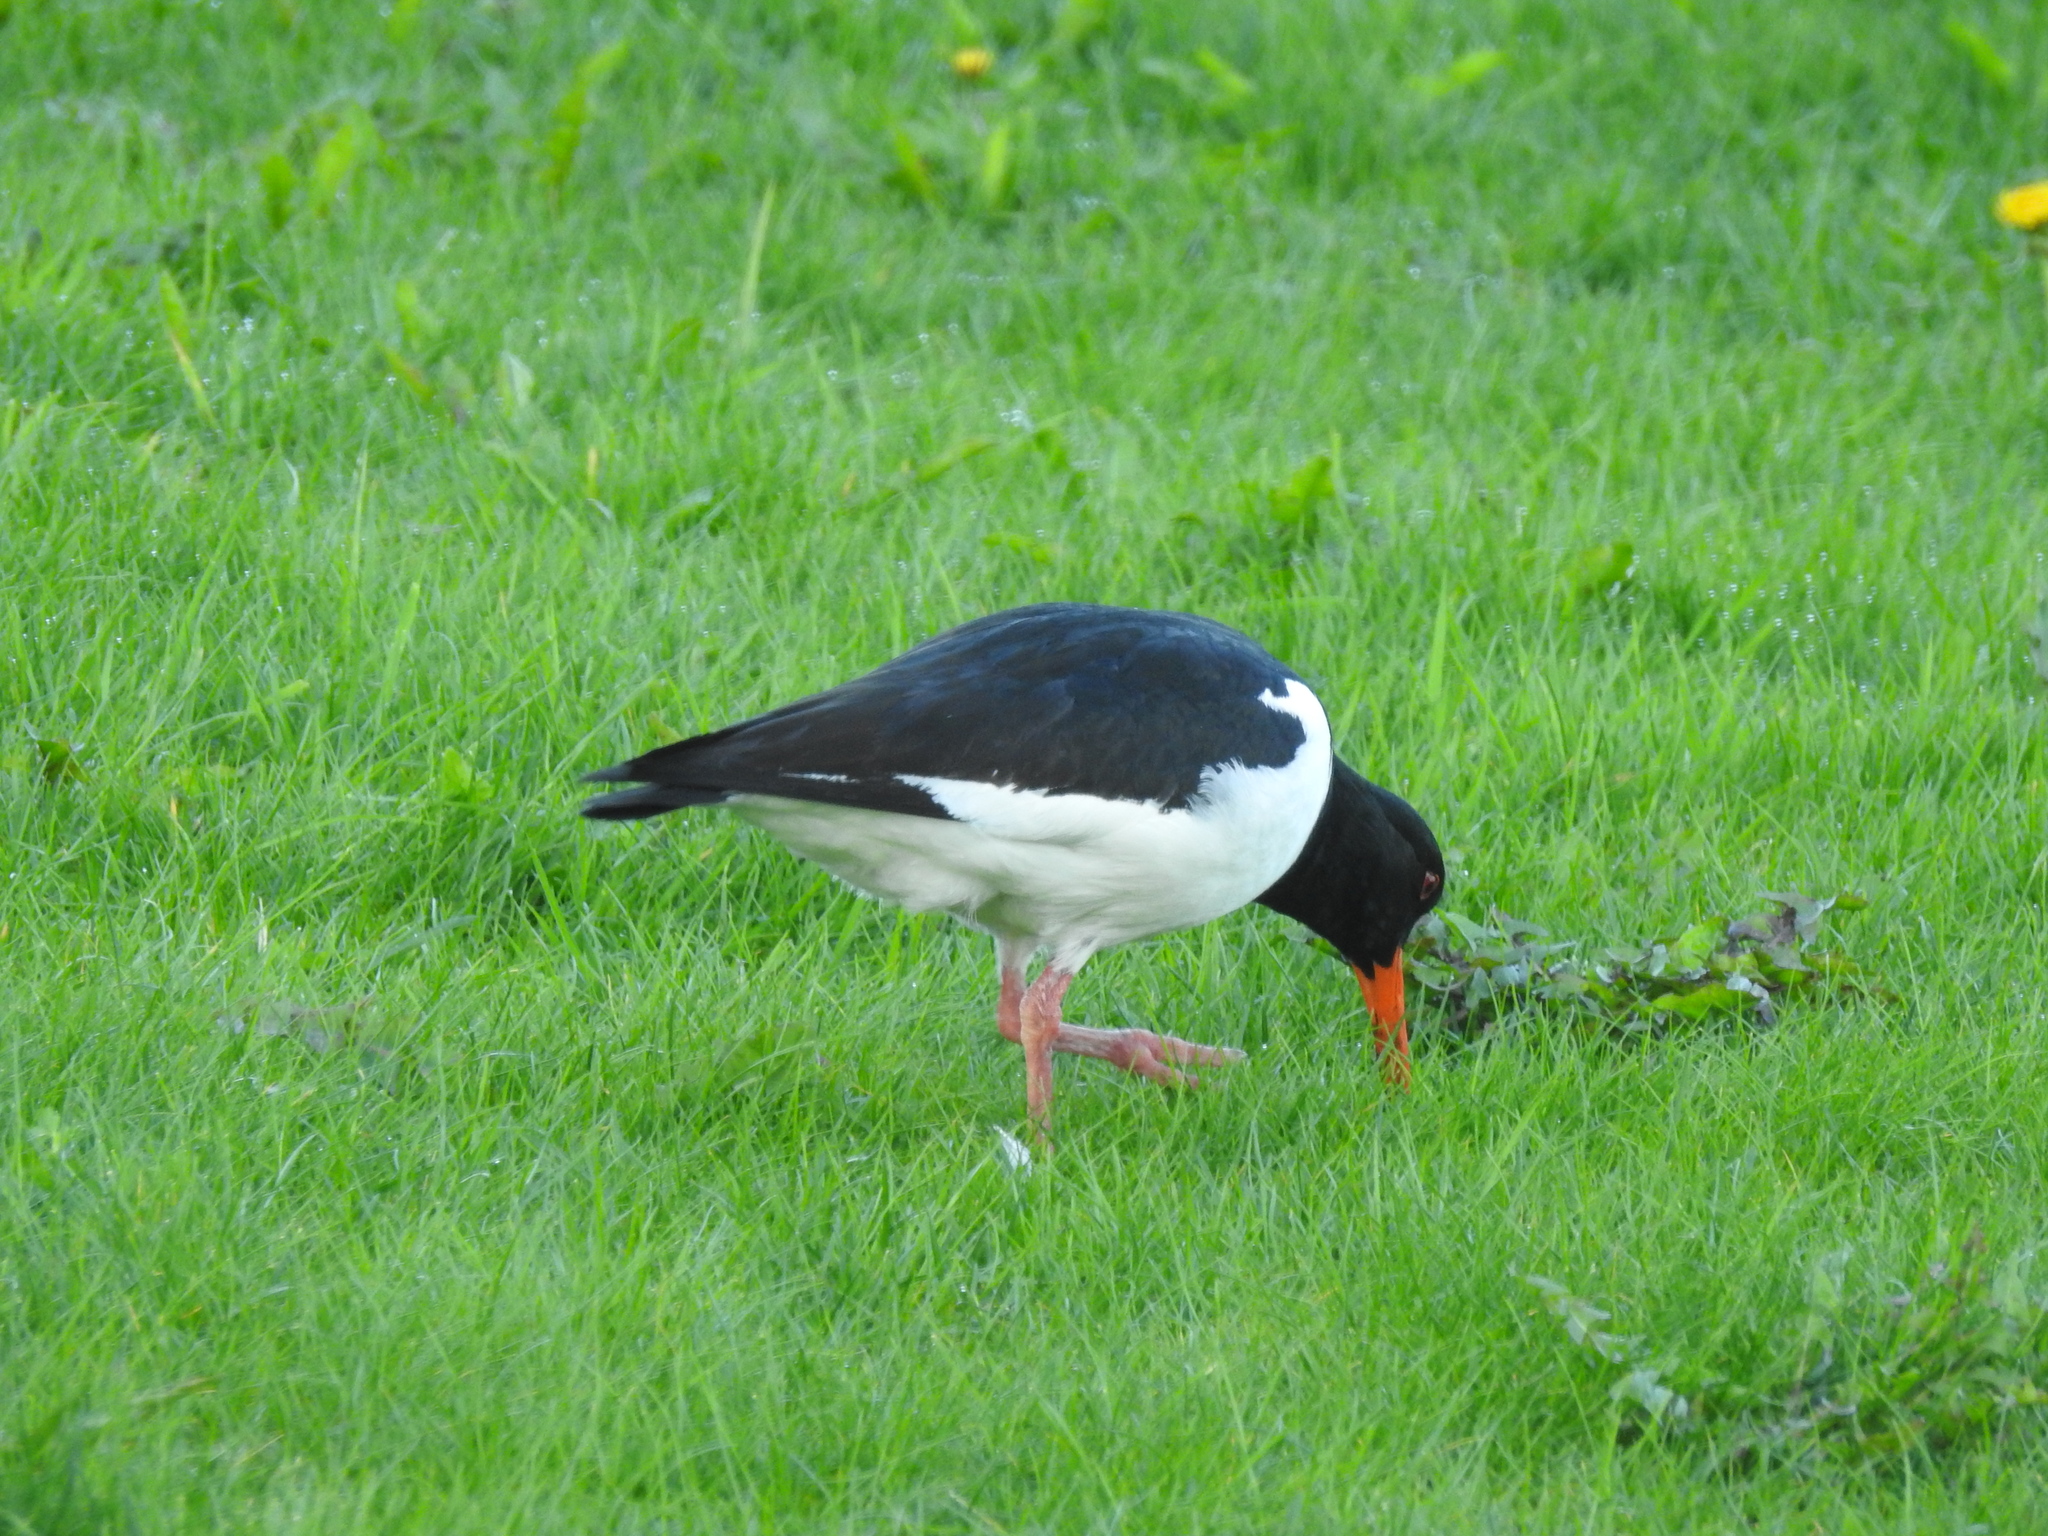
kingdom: Animalia
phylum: Chordata
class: Aves
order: Charadriiformes
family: Haematopodidae
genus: Haematopus
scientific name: Haematopus ostralegus
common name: Eurasian oystercatcher
